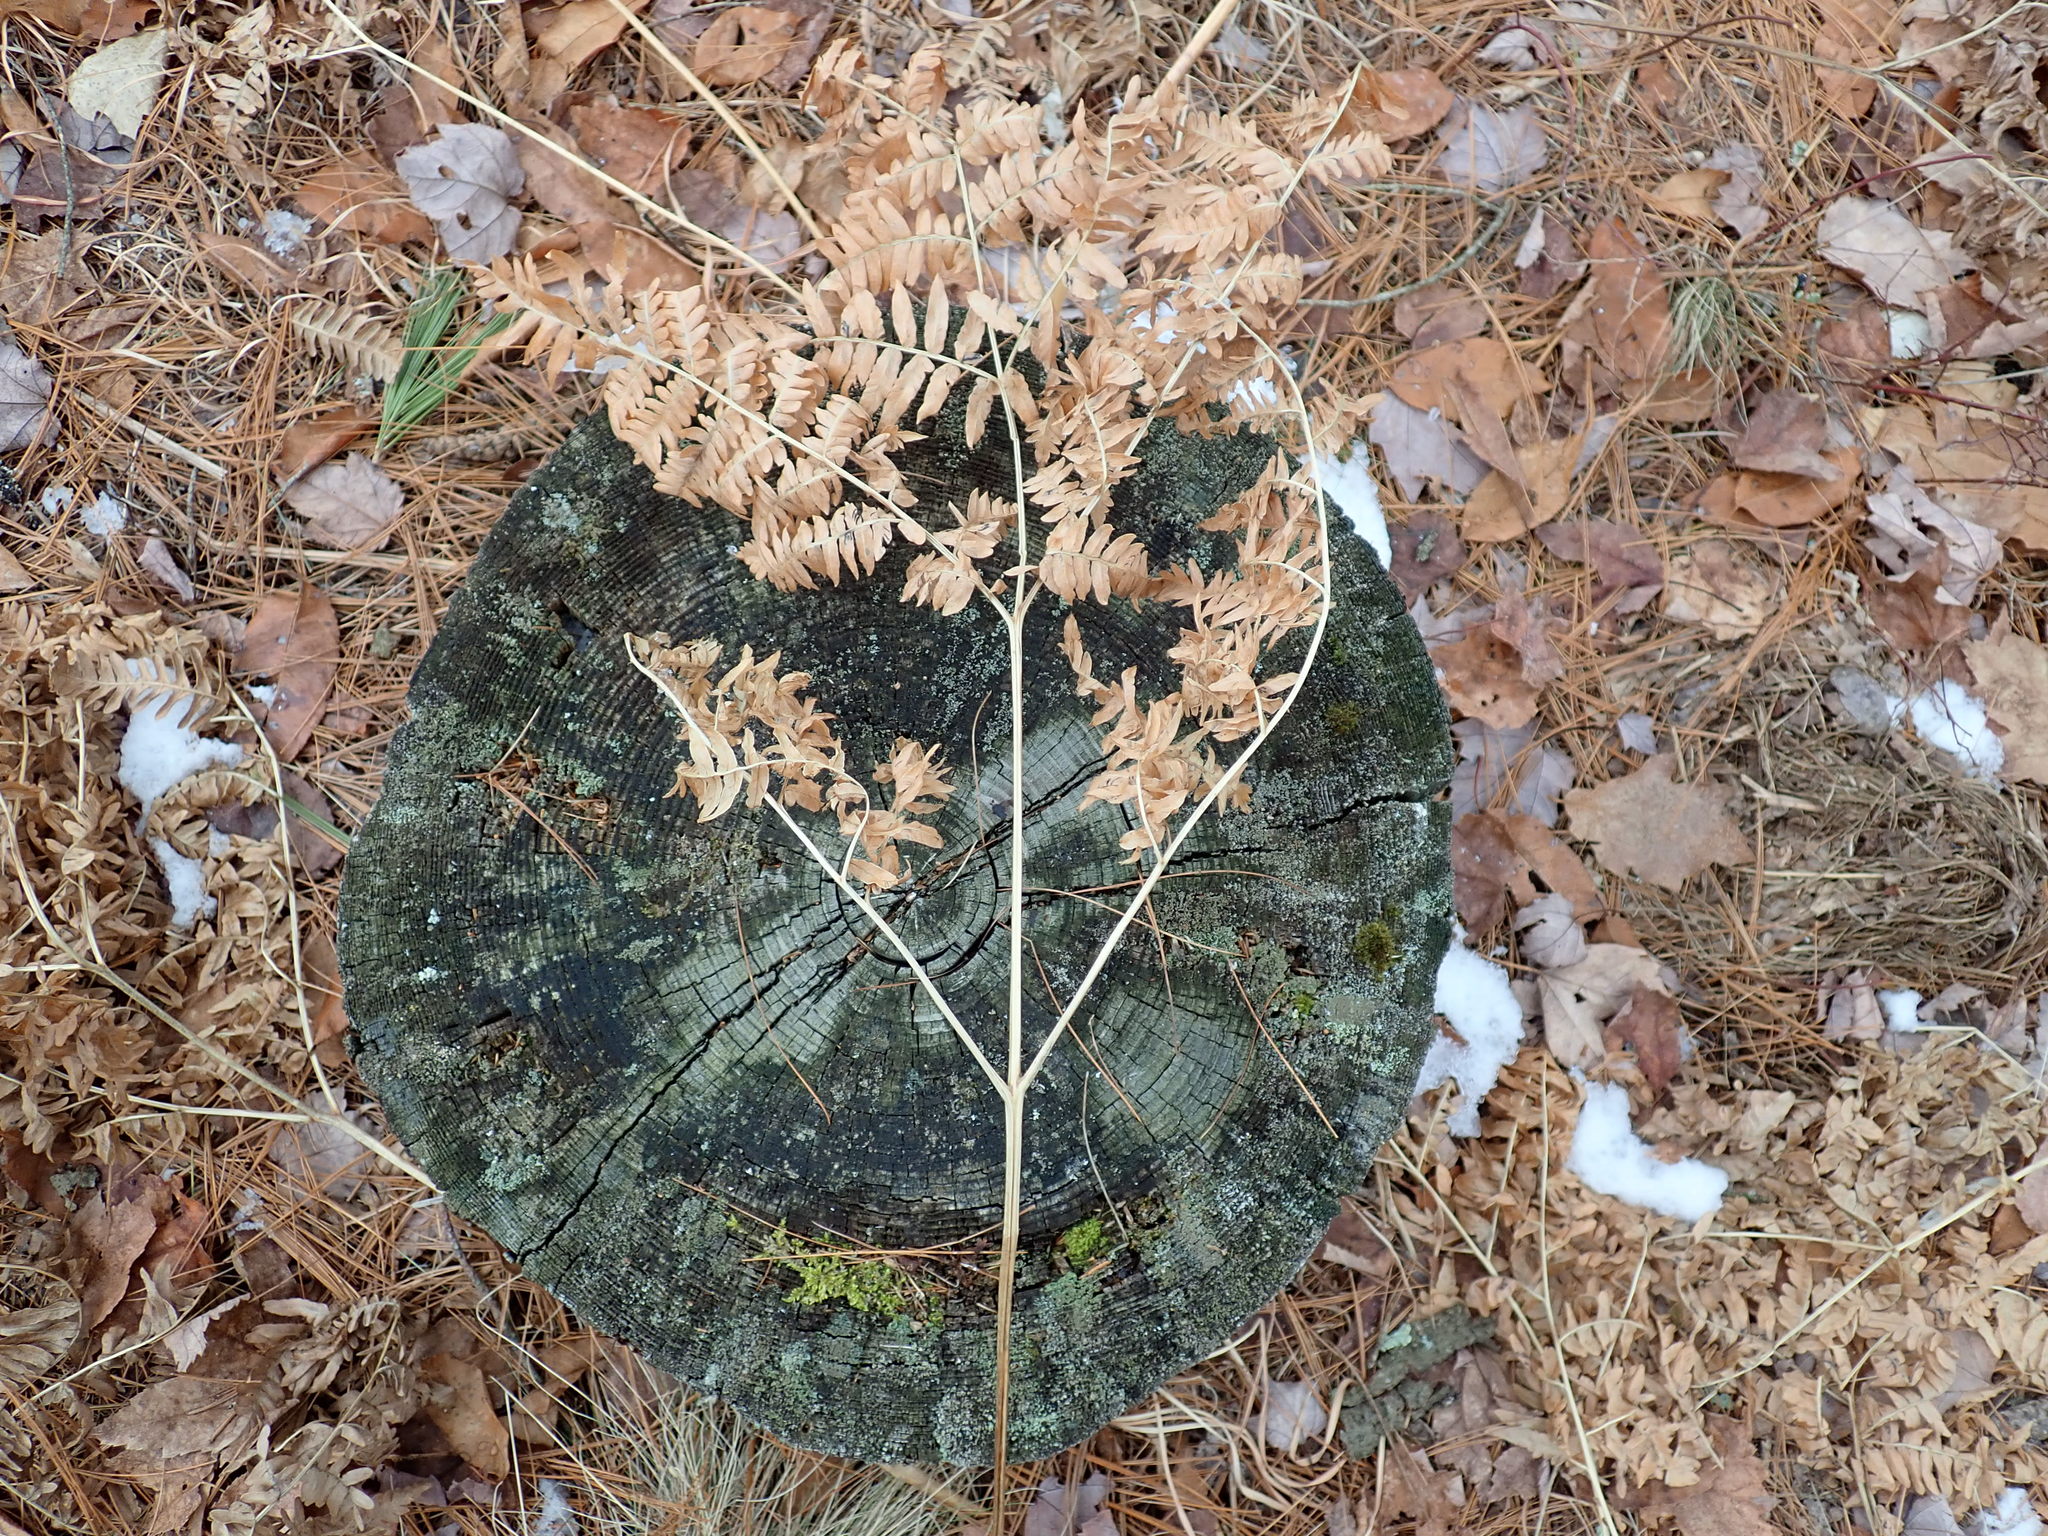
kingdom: Plantae
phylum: Tracheophyta
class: Polypodiopsida
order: Polypodiales
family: Dennstaedtiaceae
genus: Pteridium
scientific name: Pteridium aquilinum
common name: Bracken
